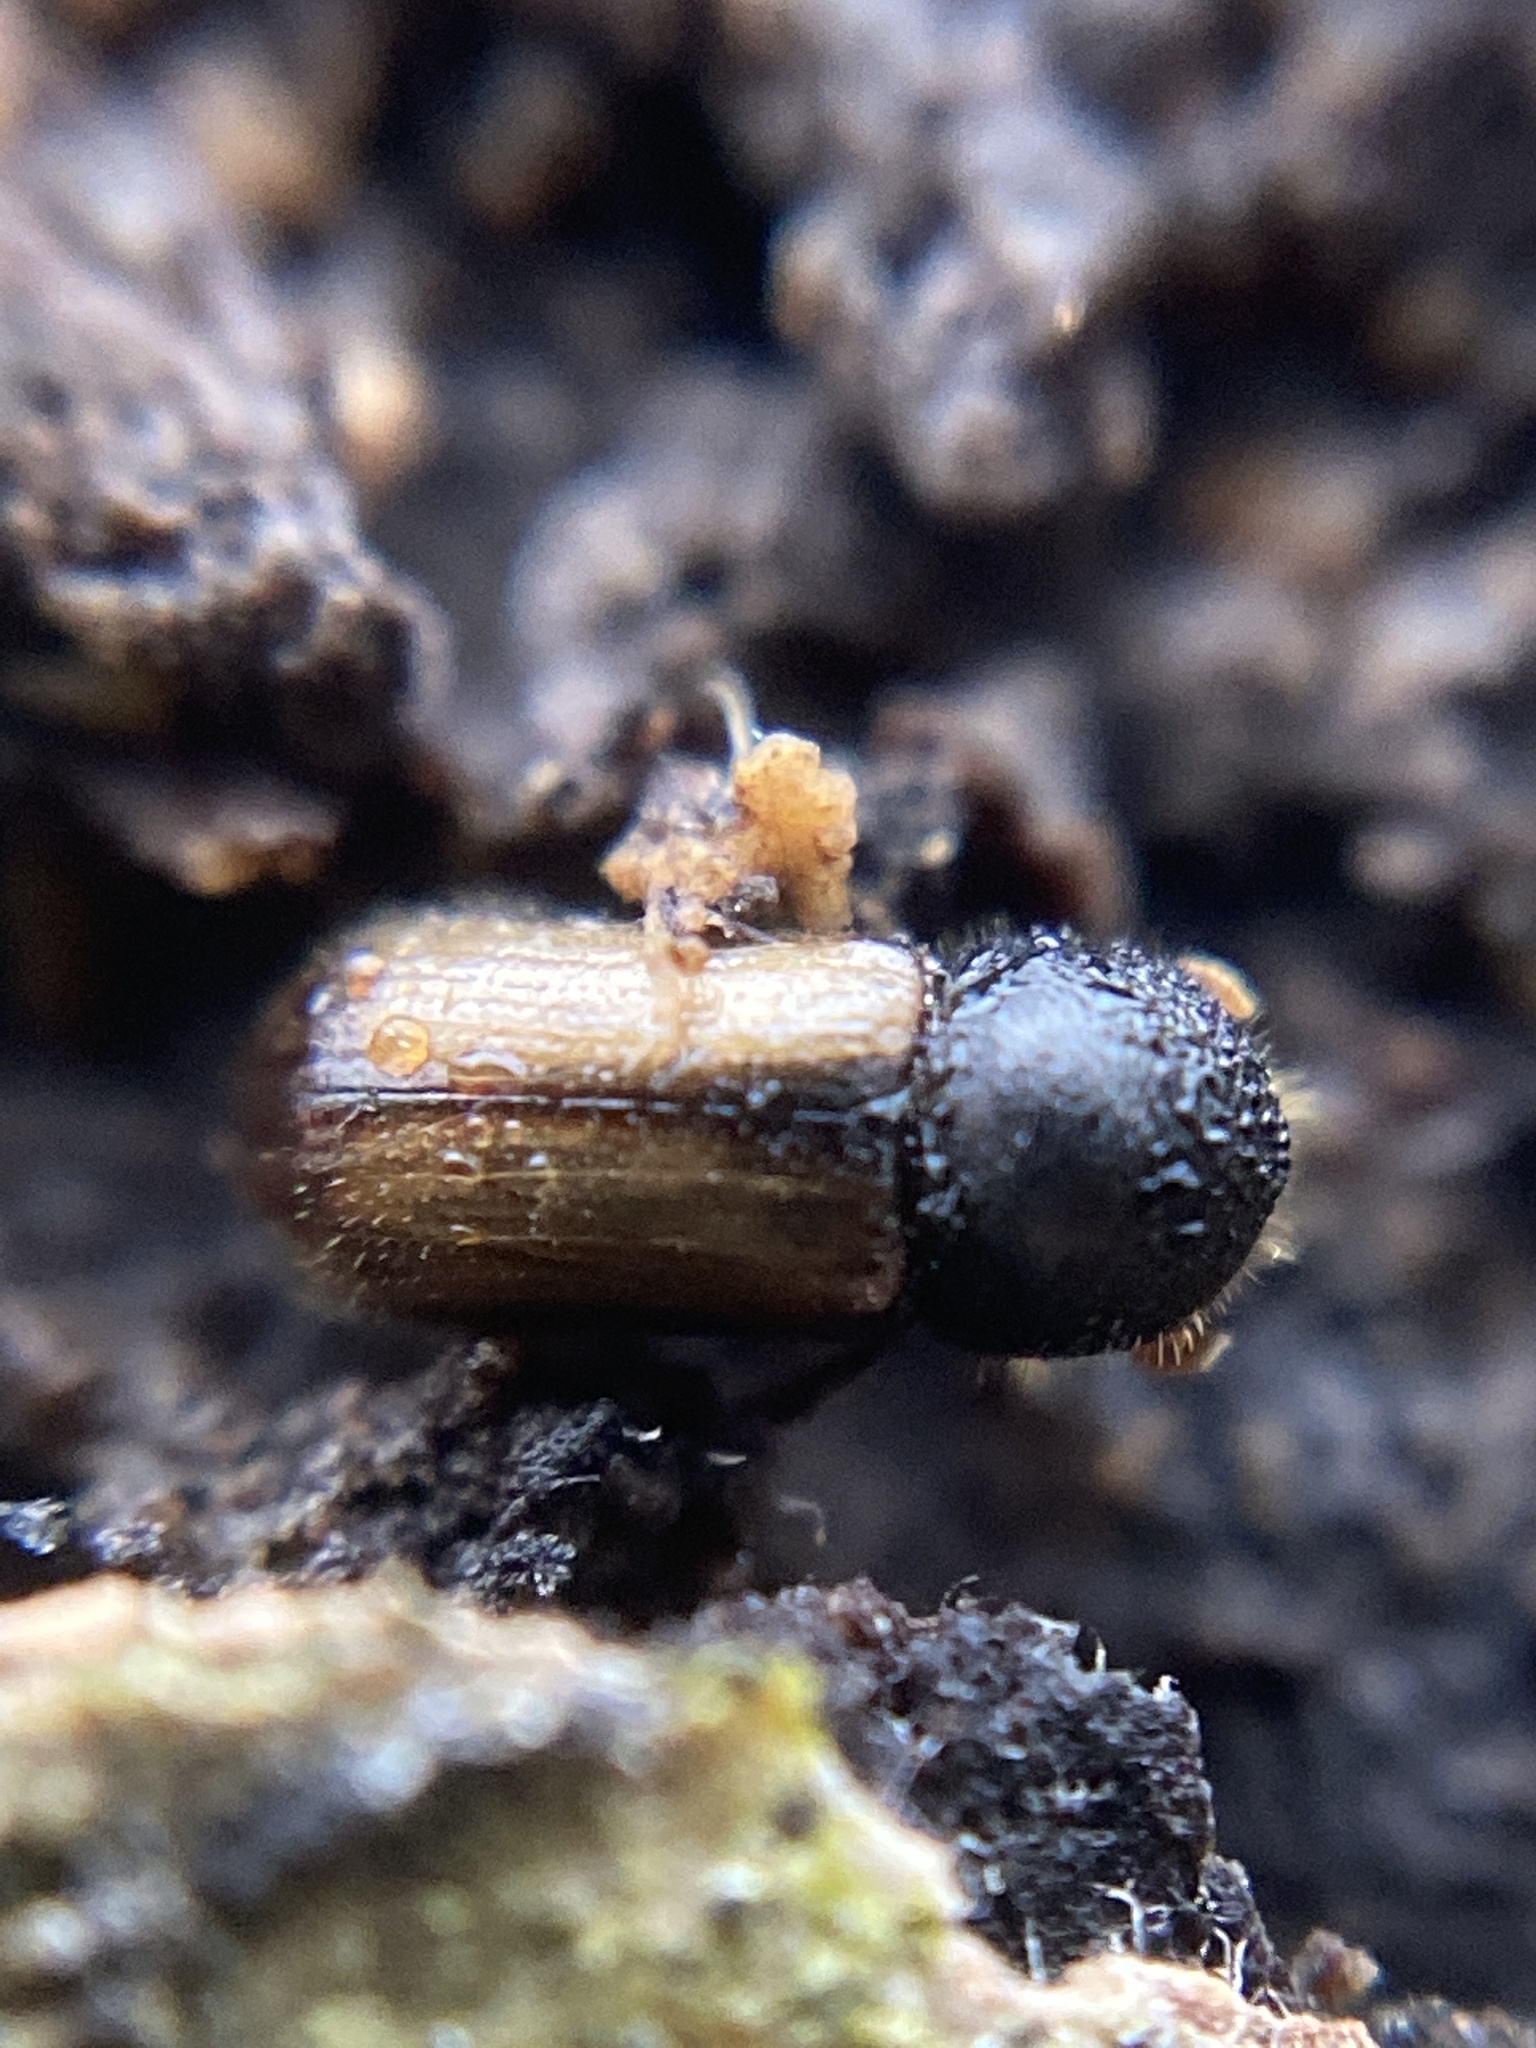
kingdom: Animalia
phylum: Arthropoda
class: Insecta
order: Coleoptera
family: Curculionidae
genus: Trypodendron
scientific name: Trypodendron domesticum
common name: European hardwood ambrosia beetle
